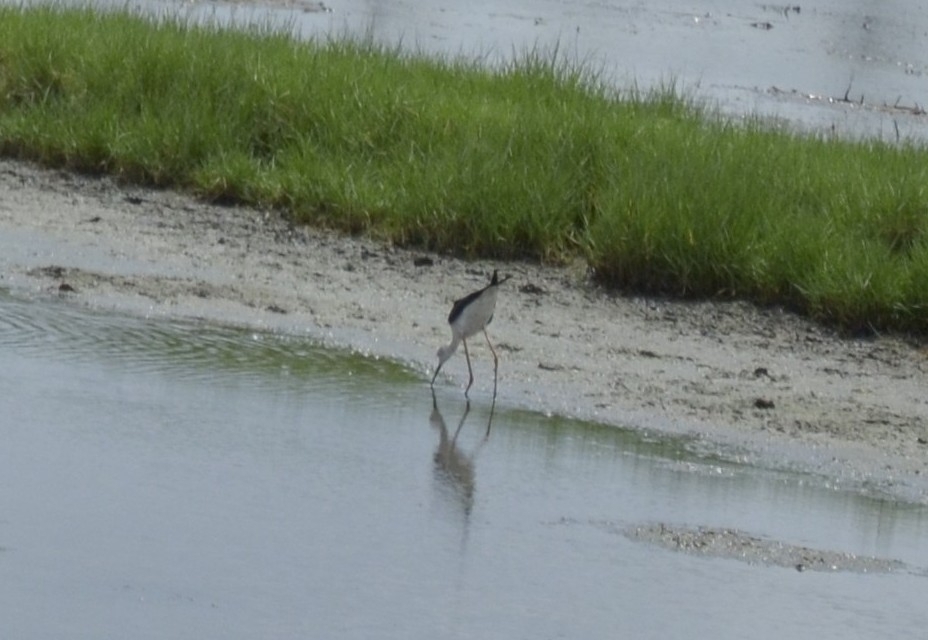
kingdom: Animalia
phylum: Chordata
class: Aves
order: Charadriiformes
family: Recurvirostridae
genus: Himantopus
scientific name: Himantopus himantopus
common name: Black-winged stilt
